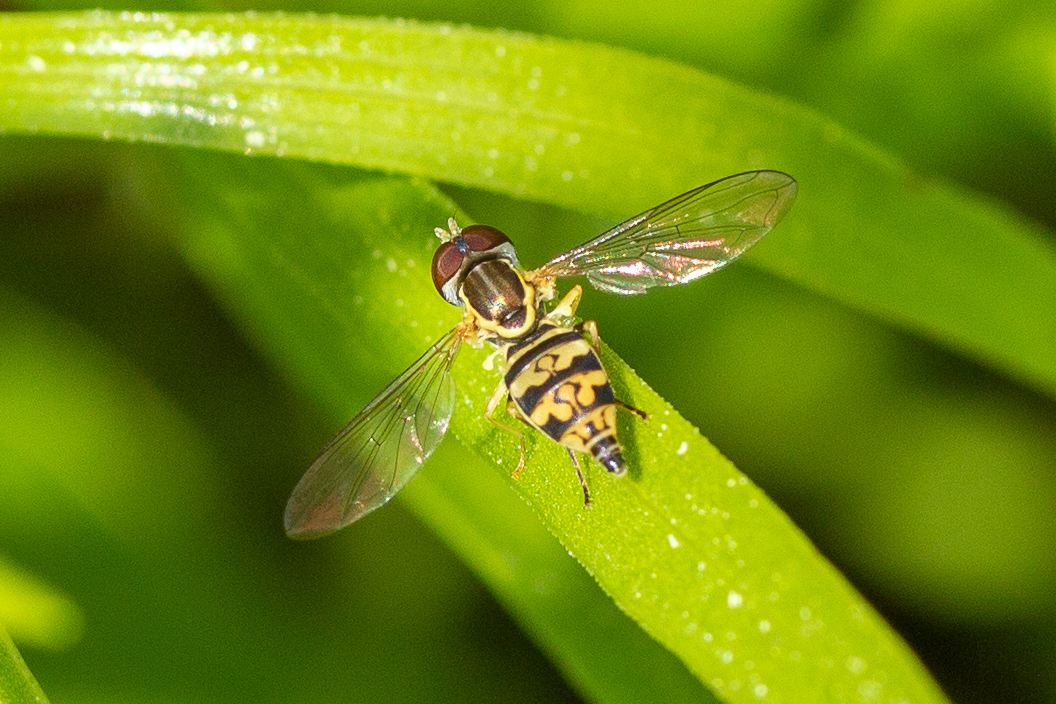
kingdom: Animalia
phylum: Arthropoda
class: Insecta
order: Diptera
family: Syrphidae
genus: Toxomerus
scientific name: Toxomerus geminatus
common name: Eastern calligrapher
